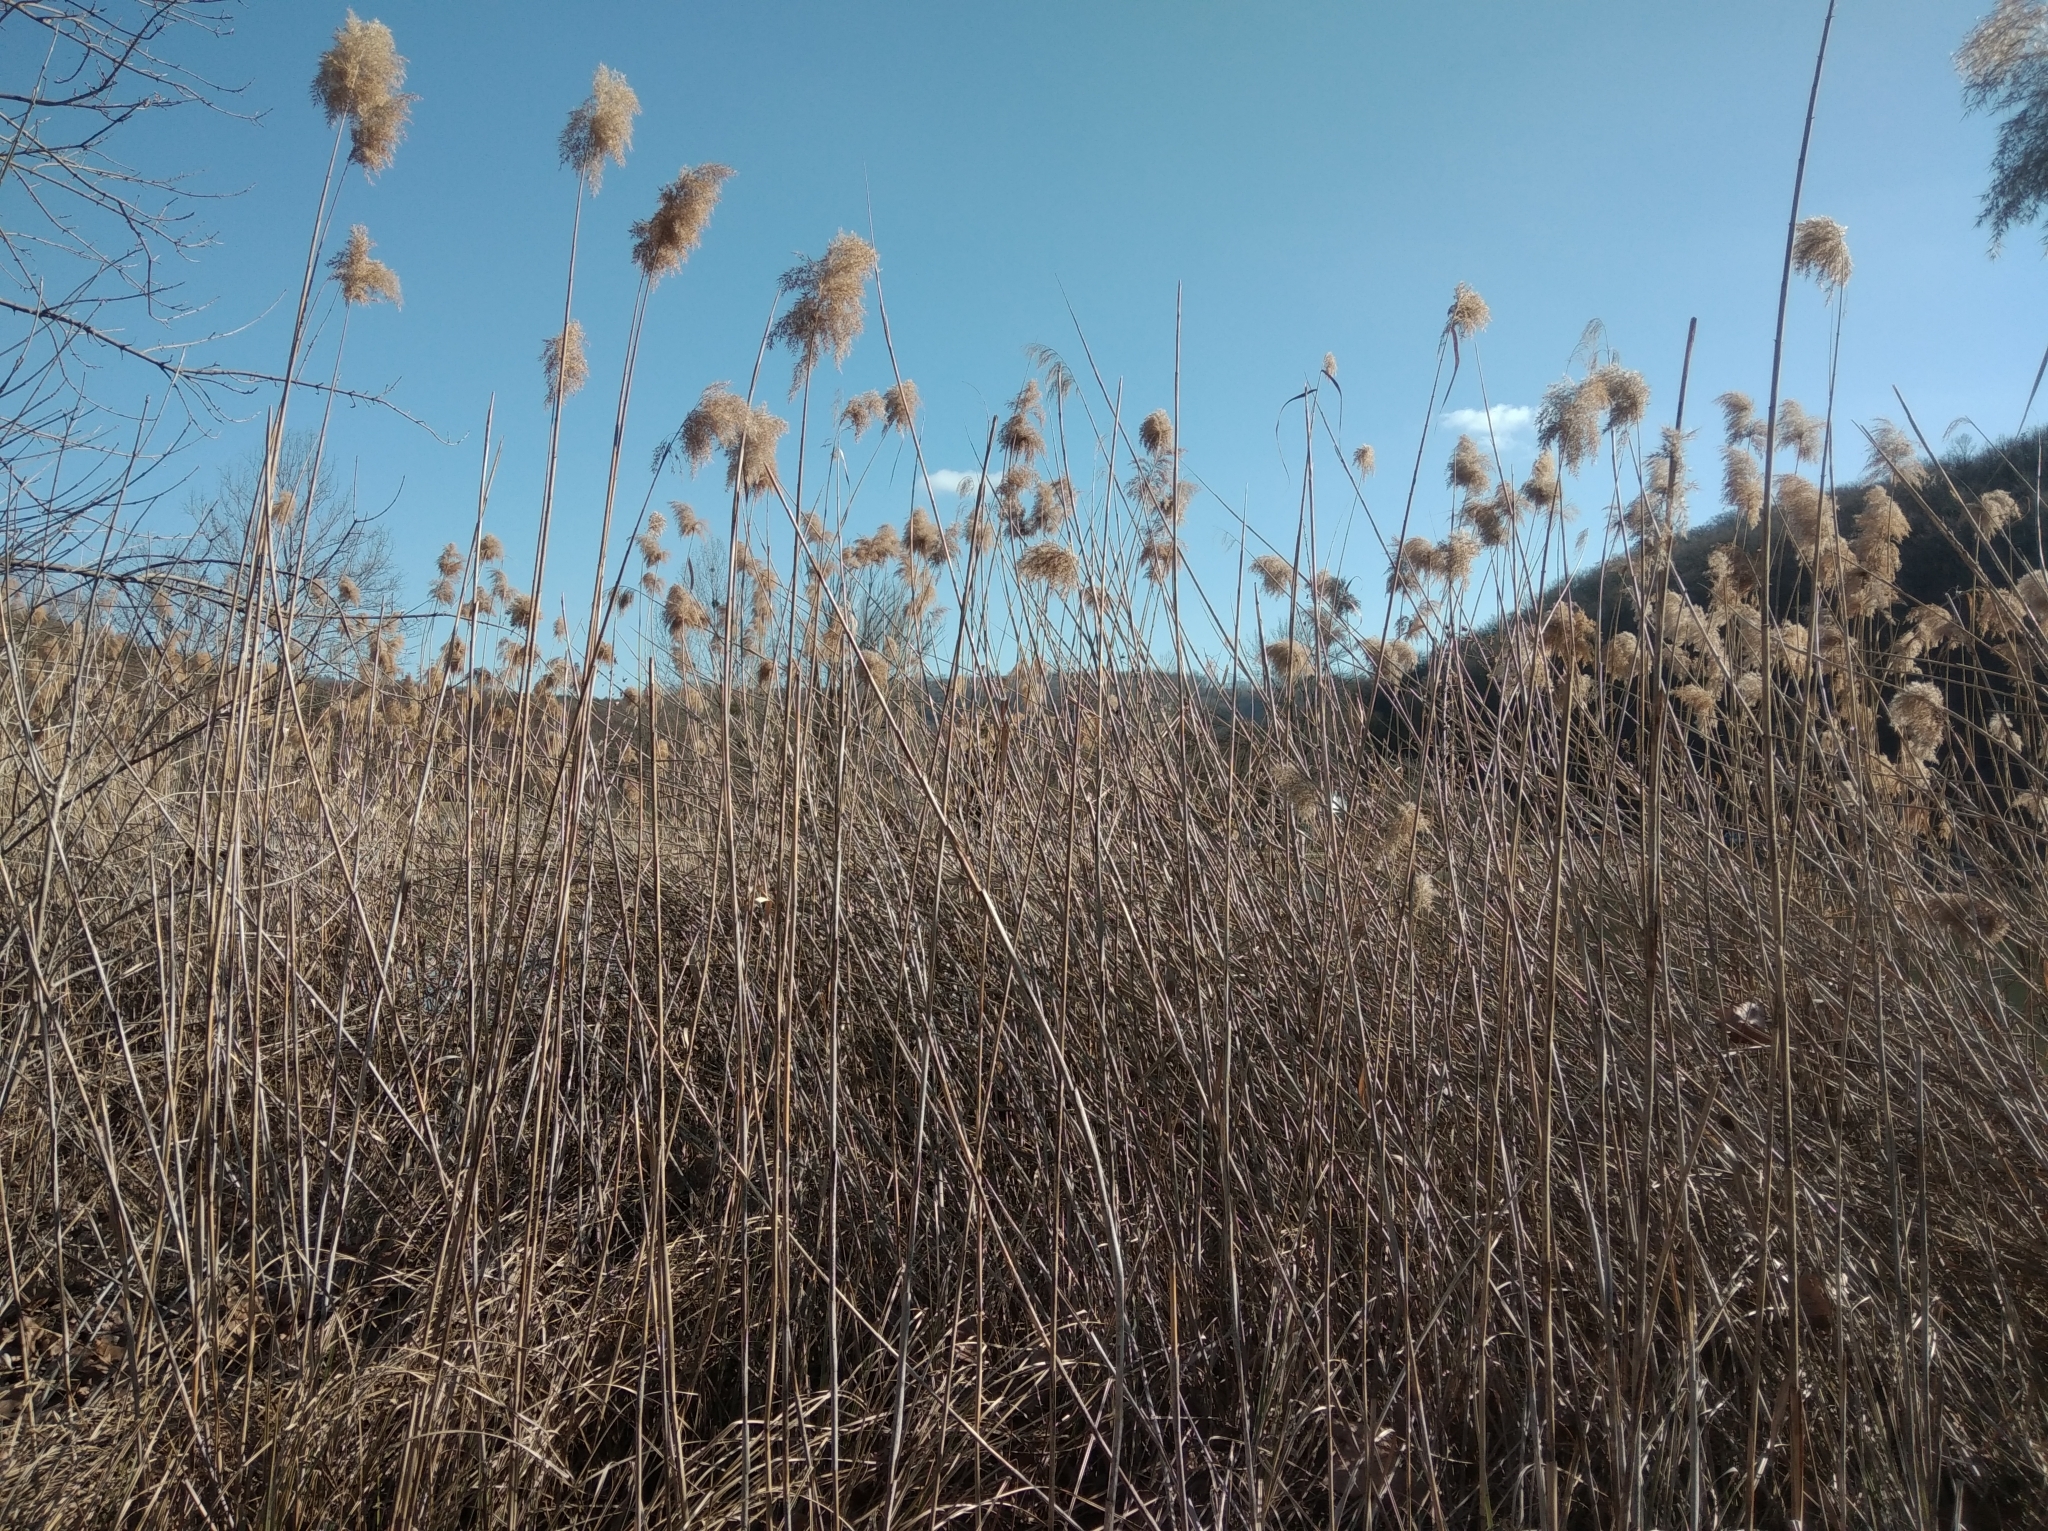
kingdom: Plantae
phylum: Tracheophyta
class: Liliopsida
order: Poales
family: Poaceae
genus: Phragmites
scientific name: Phragmites australis
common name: Common reed
